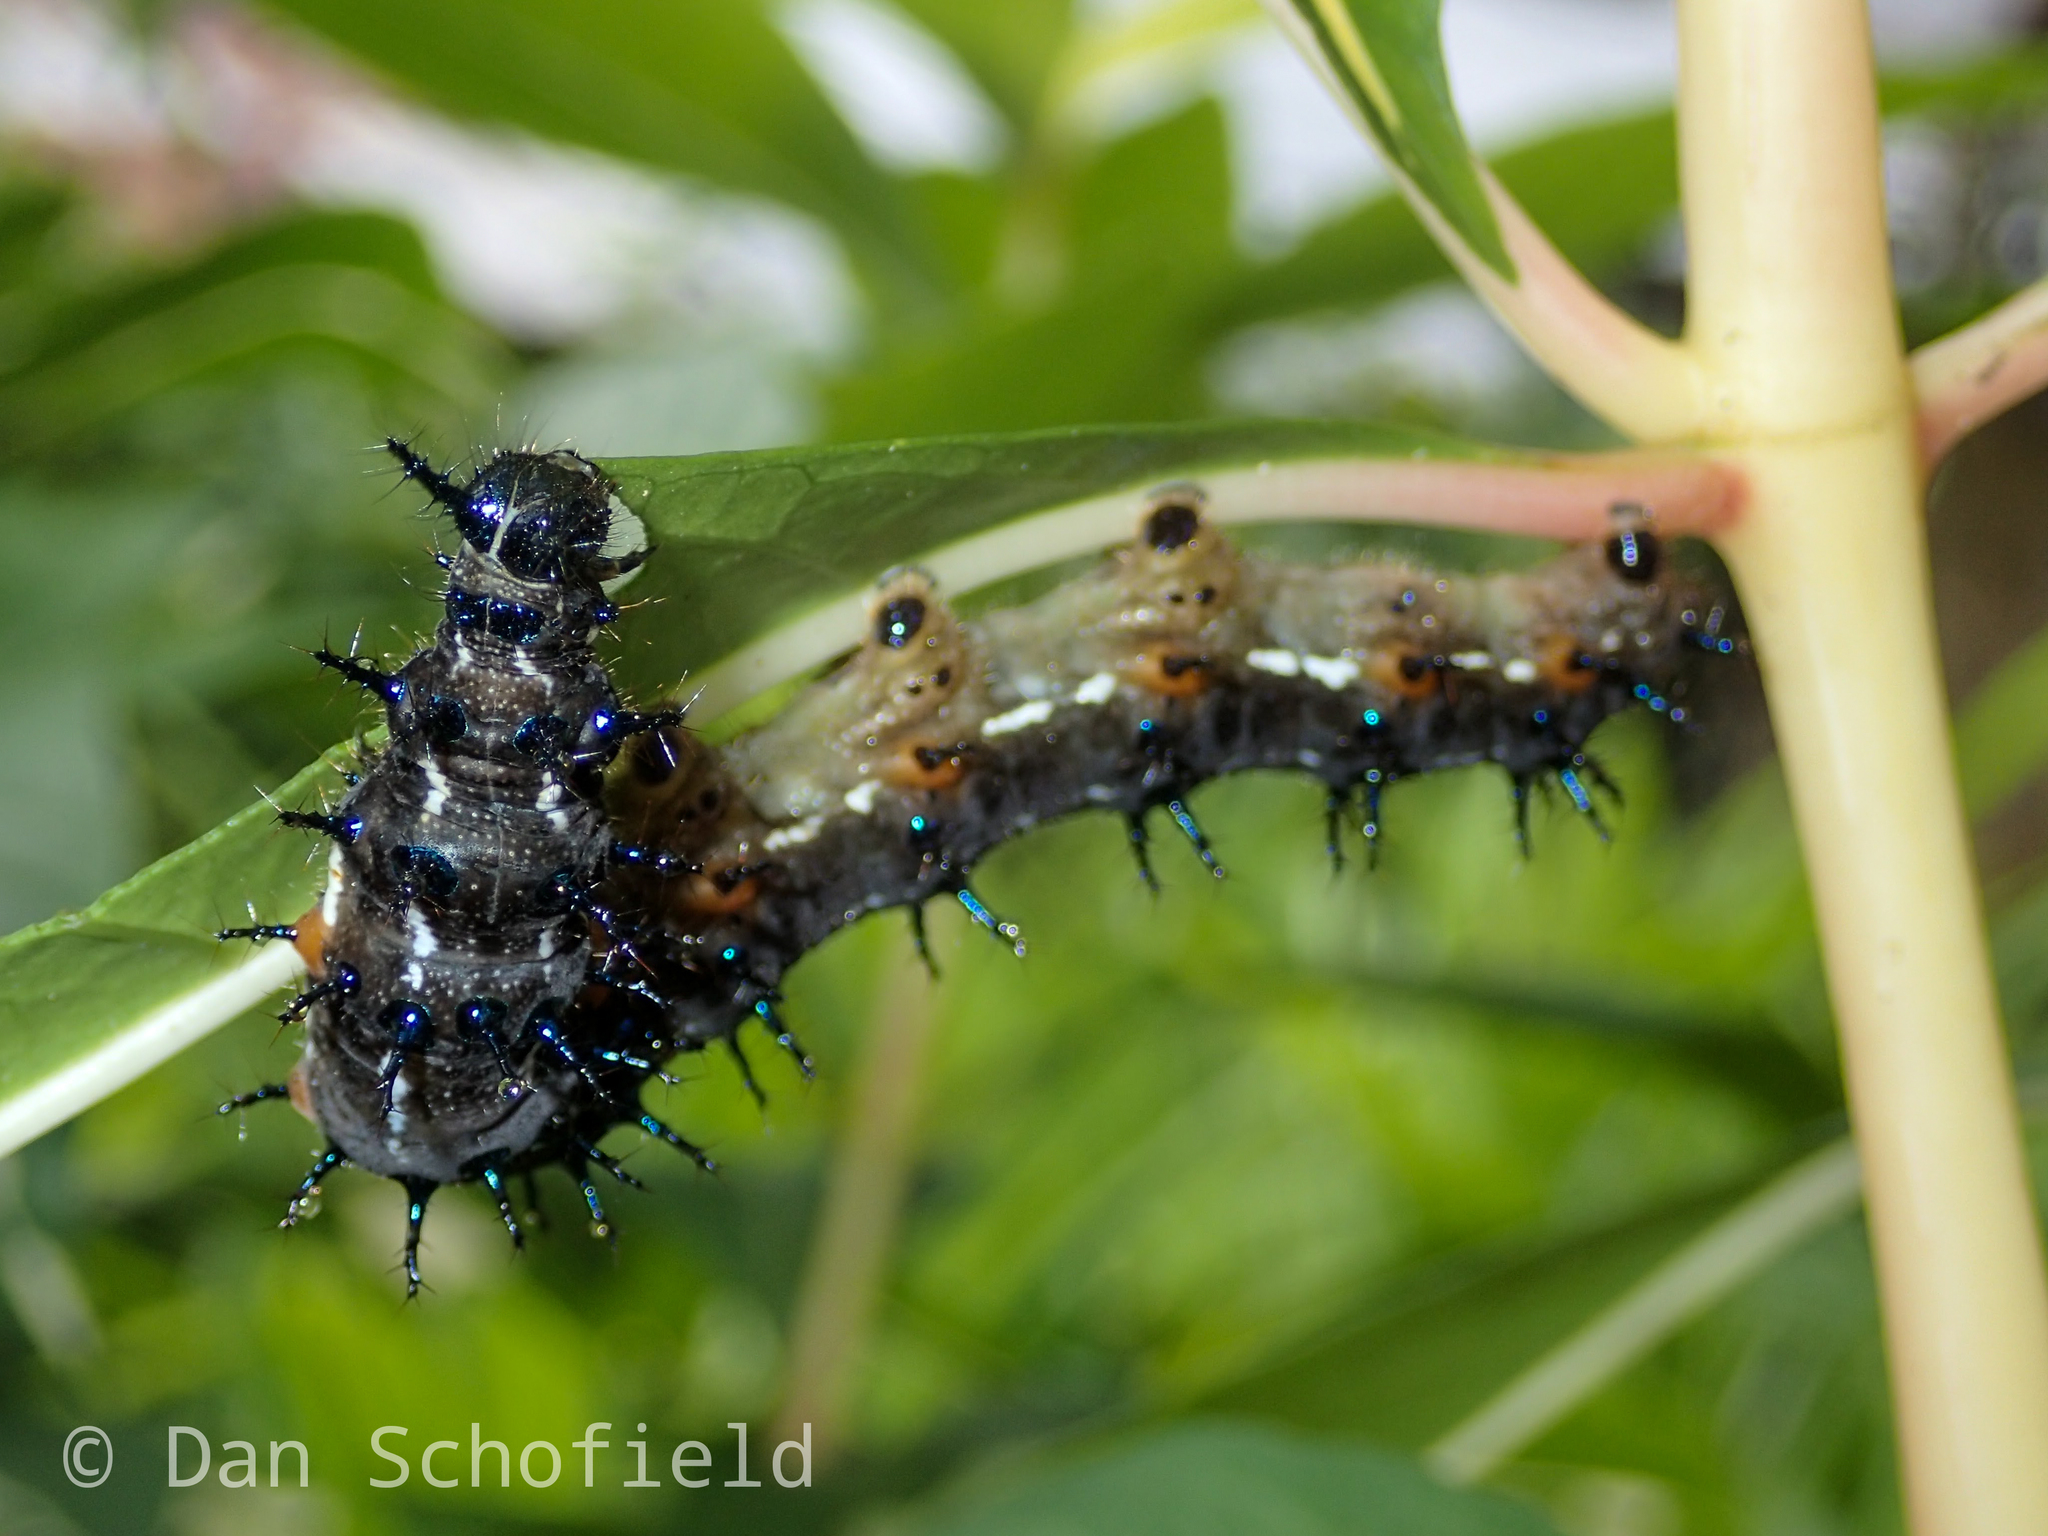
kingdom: Animalia
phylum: Arthropoda
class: Insecta
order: Lepidoptera
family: Nymphalidae
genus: Doleschallia
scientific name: Doleschallia bisaltide
